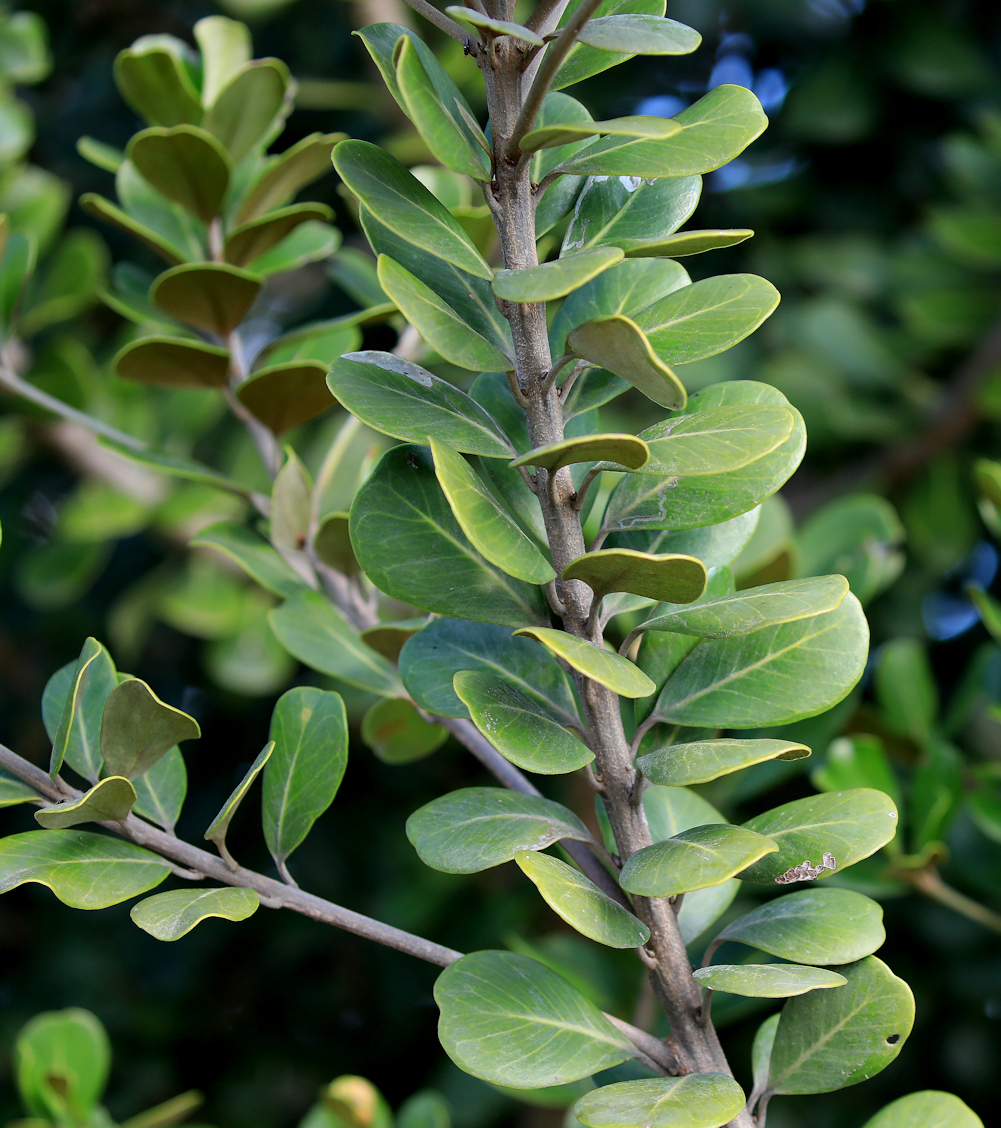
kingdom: Plantae
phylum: Tracheophyta
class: Magnoliopsida
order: Ericales
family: Sapotaceae
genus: Mimusops
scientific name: Mimusops caffra
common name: Coastal red milkwood
